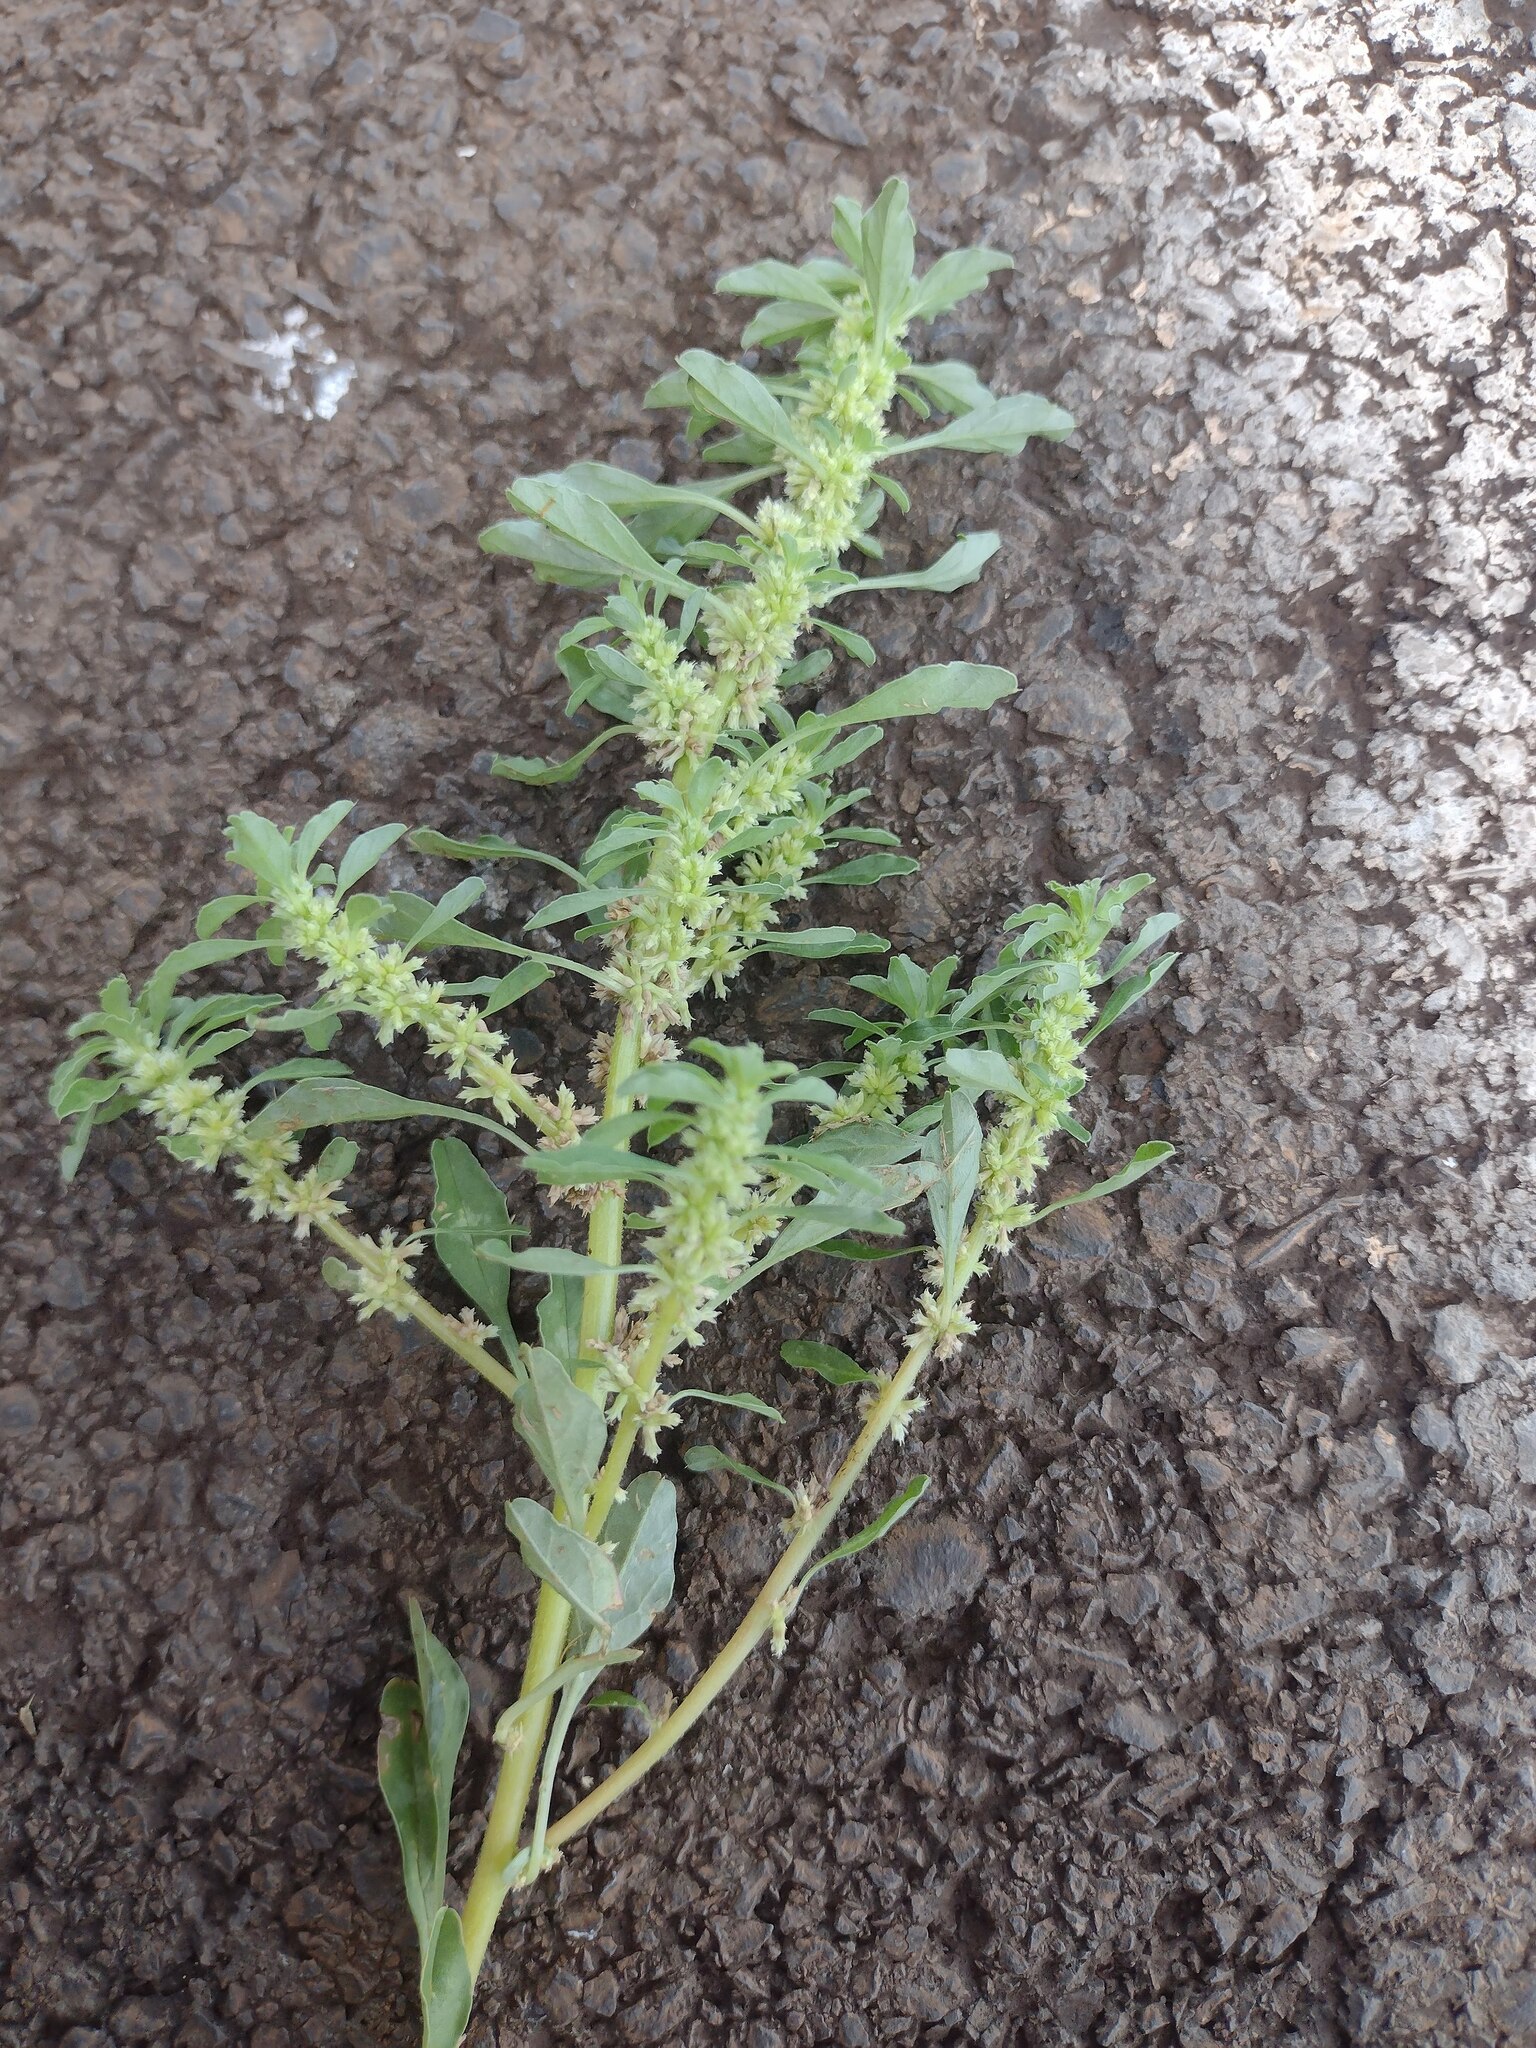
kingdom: Plantae
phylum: Tracheophyta
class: Magnoliopsida
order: Caryophyllales
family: Amaranthaceae
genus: Amaranthus
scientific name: Amaranthus polygonoides
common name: Tropical amaranth
